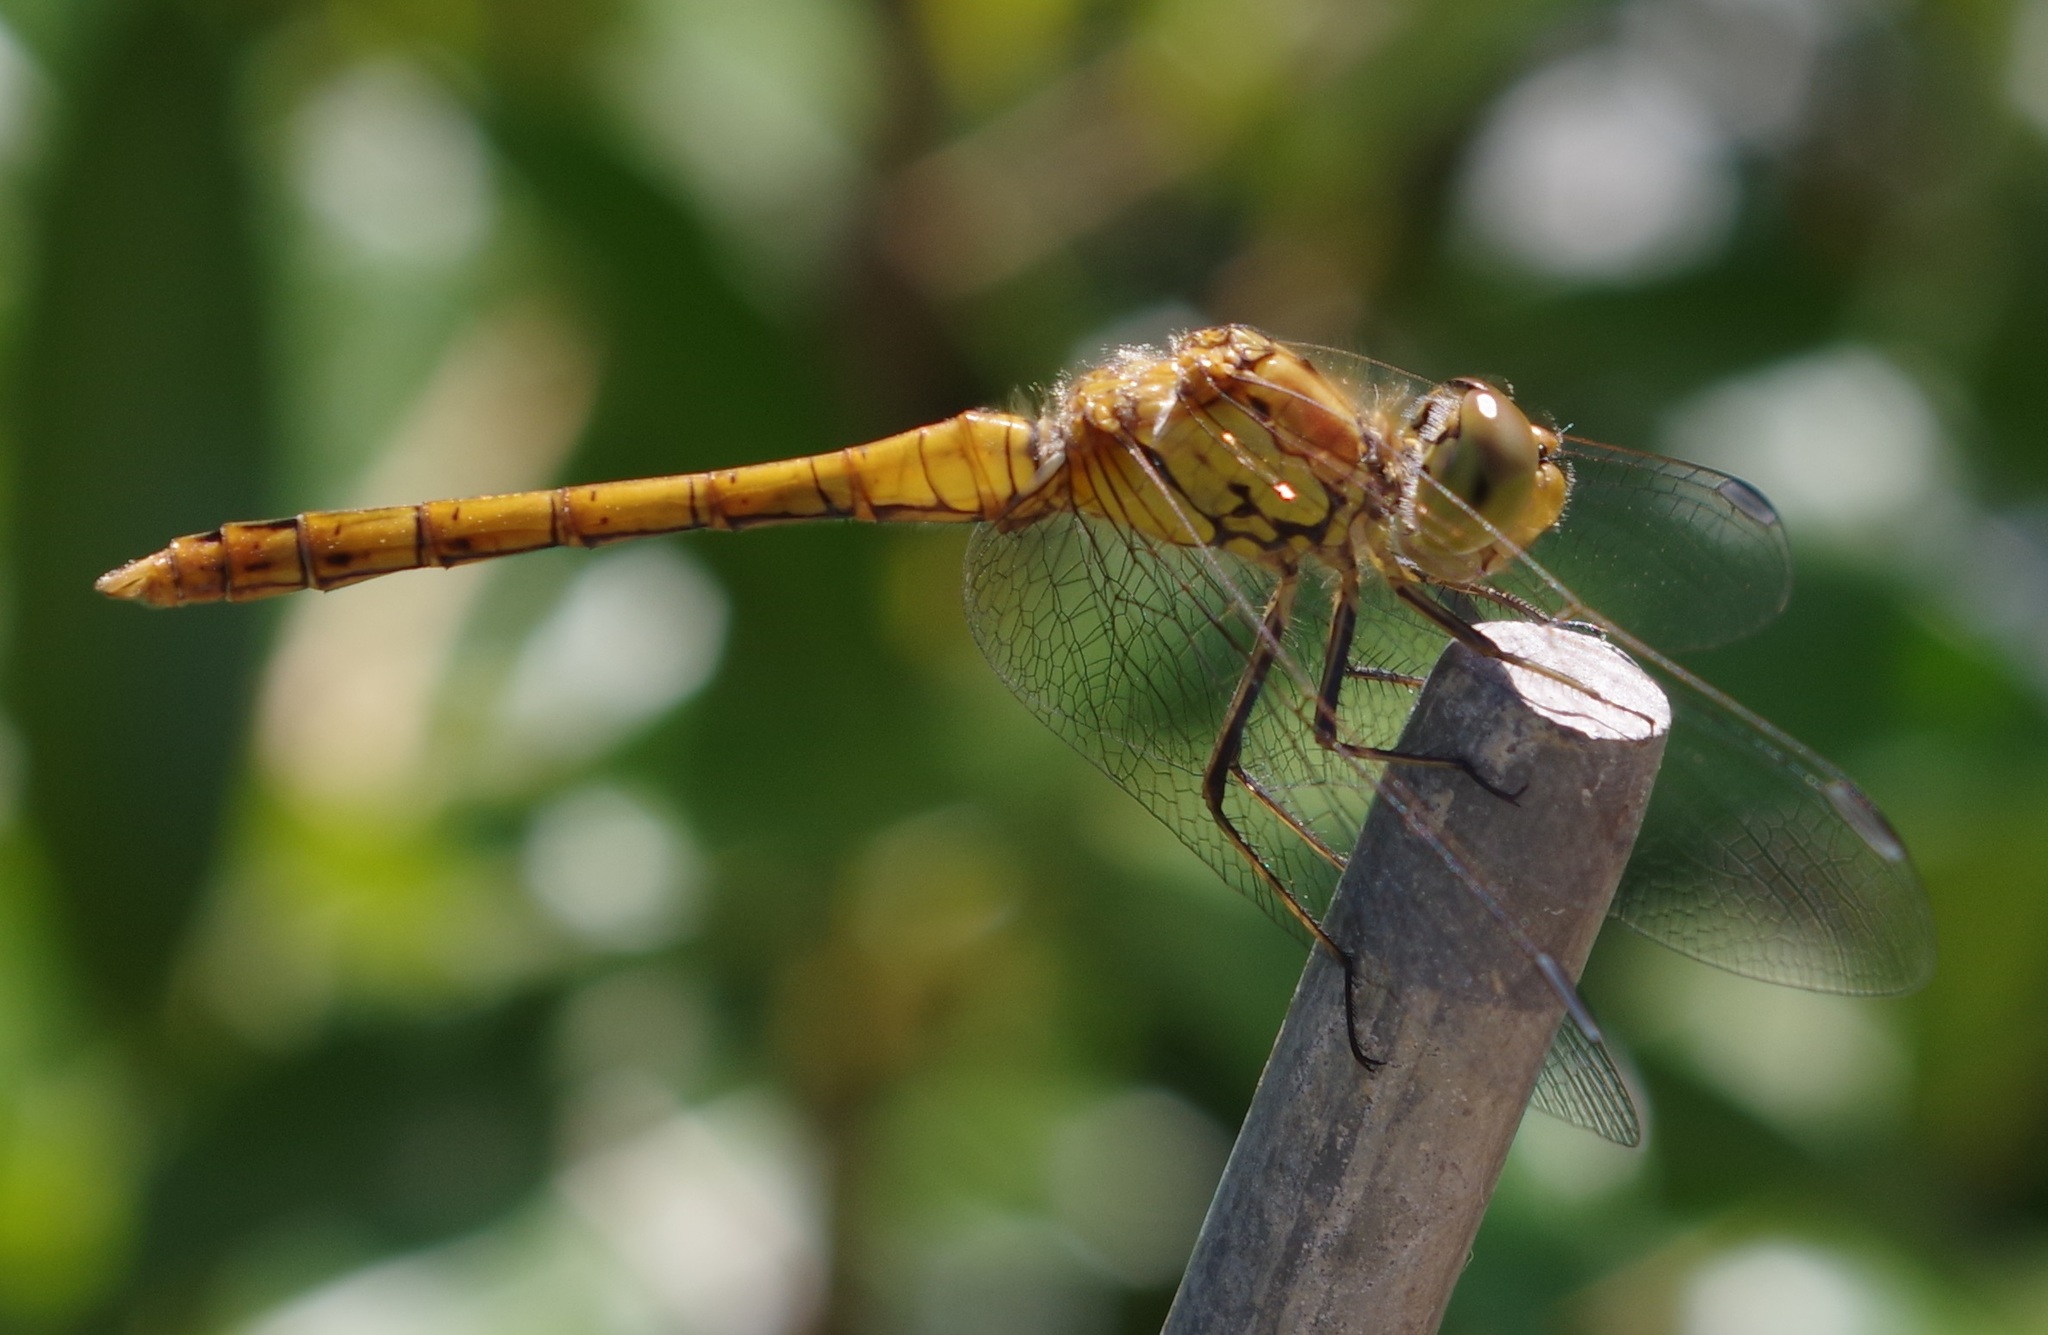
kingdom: Animalia
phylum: Arthropoda
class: Insecta
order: Odonata
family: Libellulidae
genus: Sympetrum
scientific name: Sympetrum striolatum
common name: Common darter
